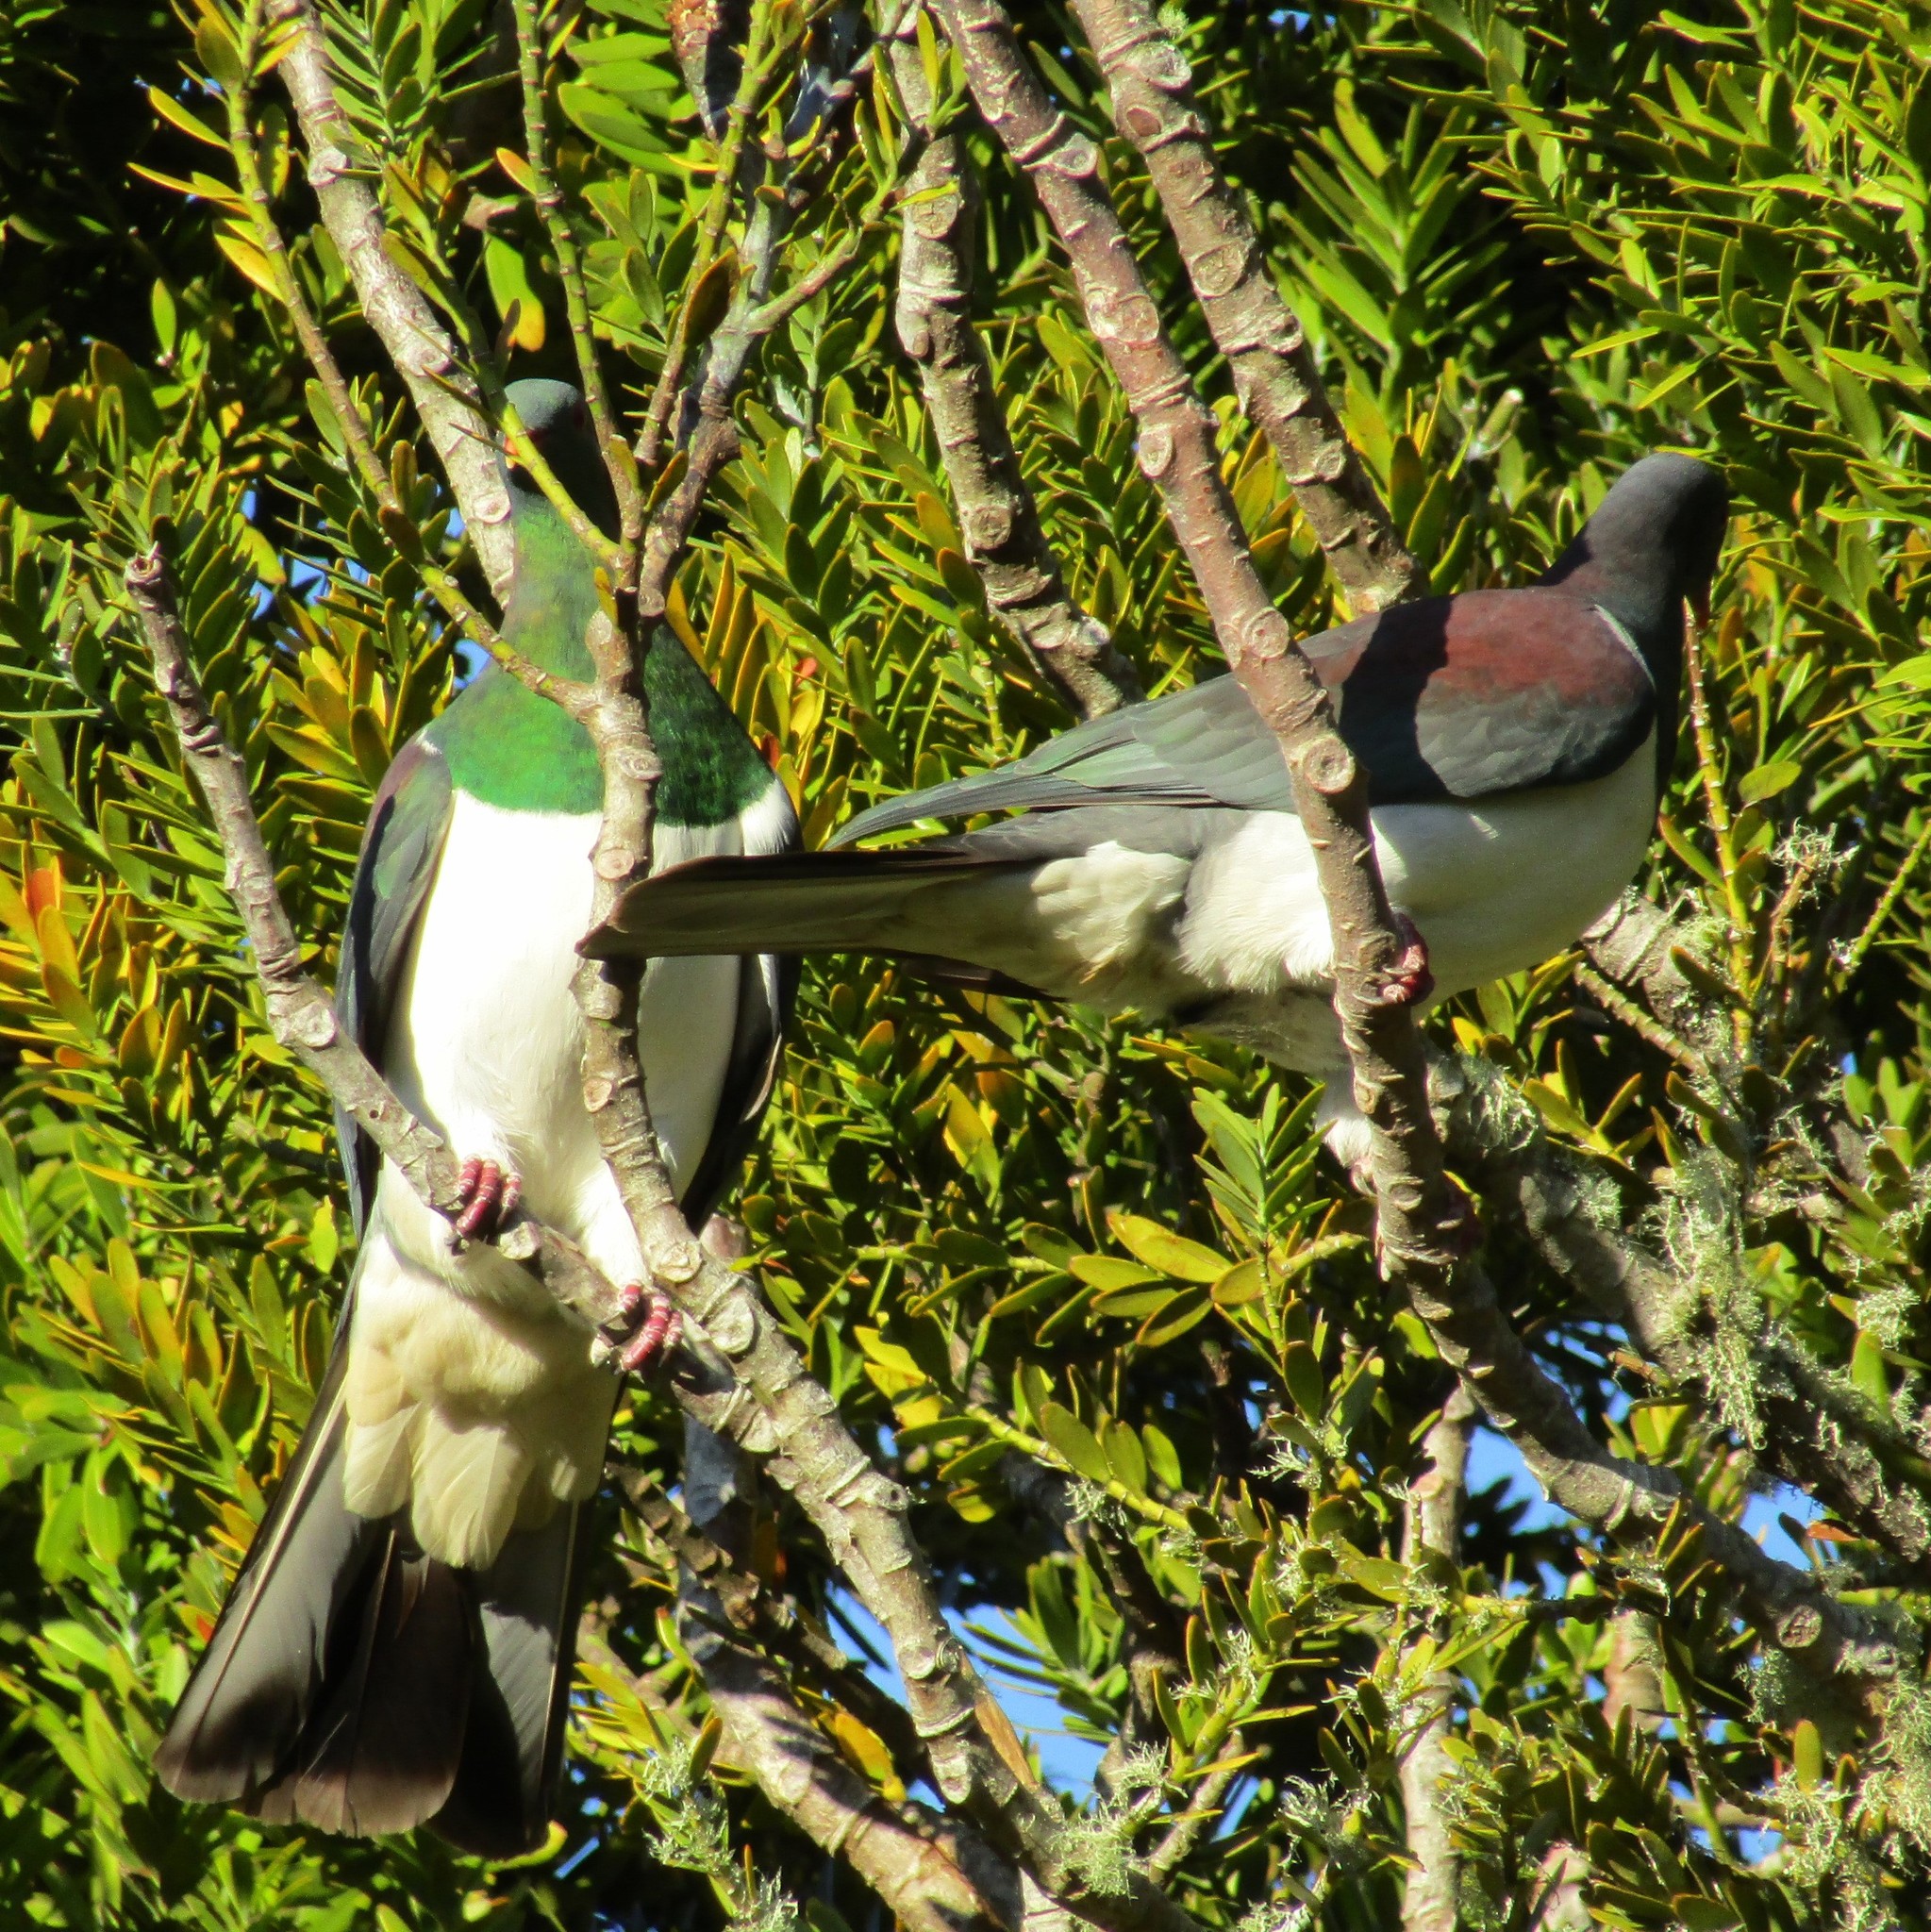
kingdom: Animalia
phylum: Chordata
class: Aves
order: Columbiformes
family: Columbidae
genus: Hemiphaga
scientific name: Hemiphaga novaeseelandiae
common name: New zealand pigeon
